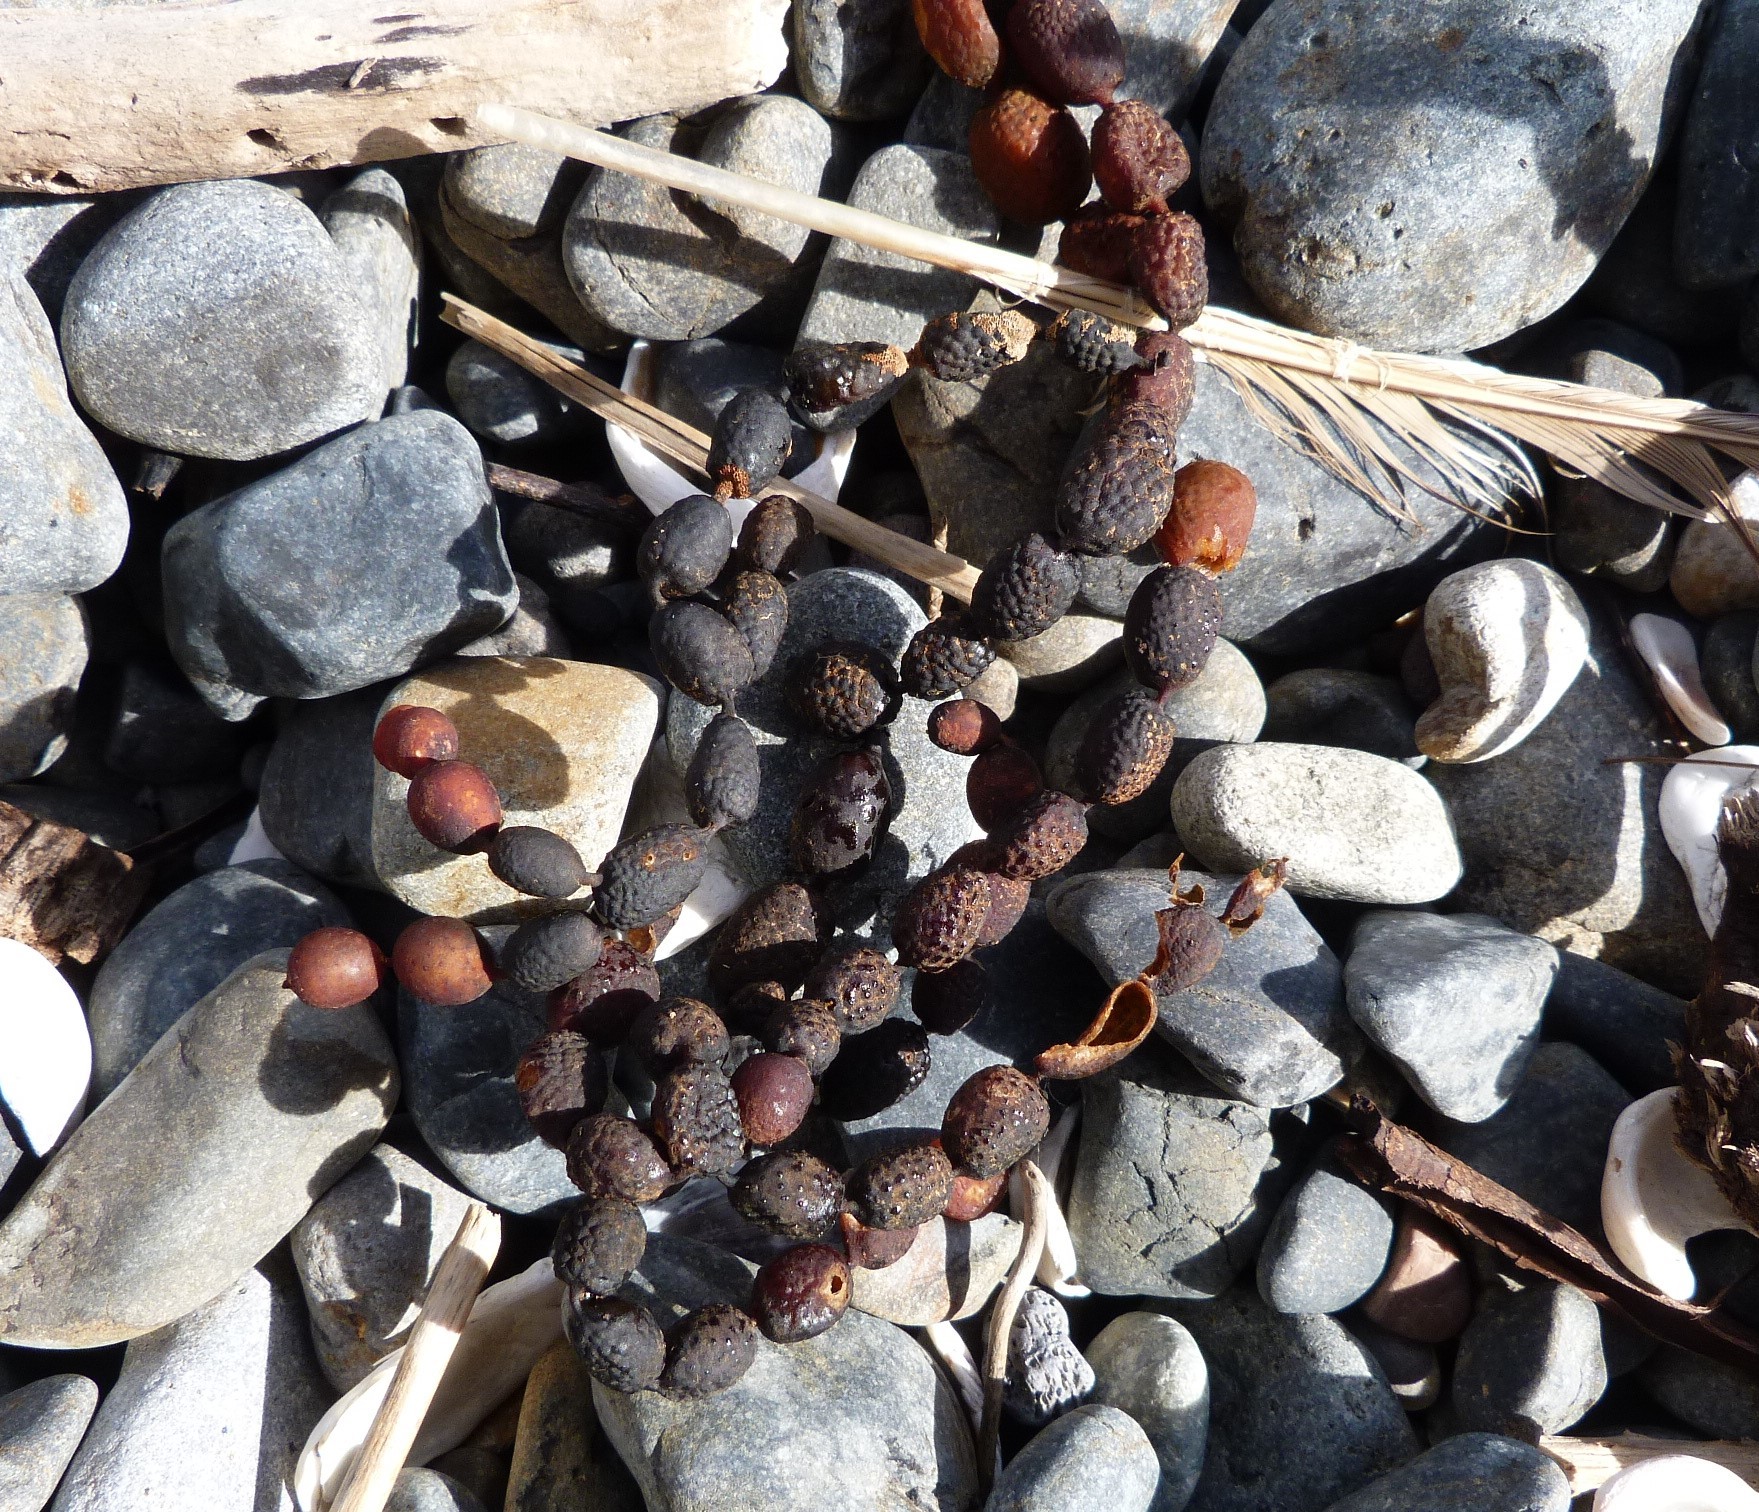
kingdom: Chromista
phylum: Ochrophyta
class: Phaeophyceae
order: Fucales
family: Hormosiraceae
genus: Hormosira
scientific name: Hormosira banksii
